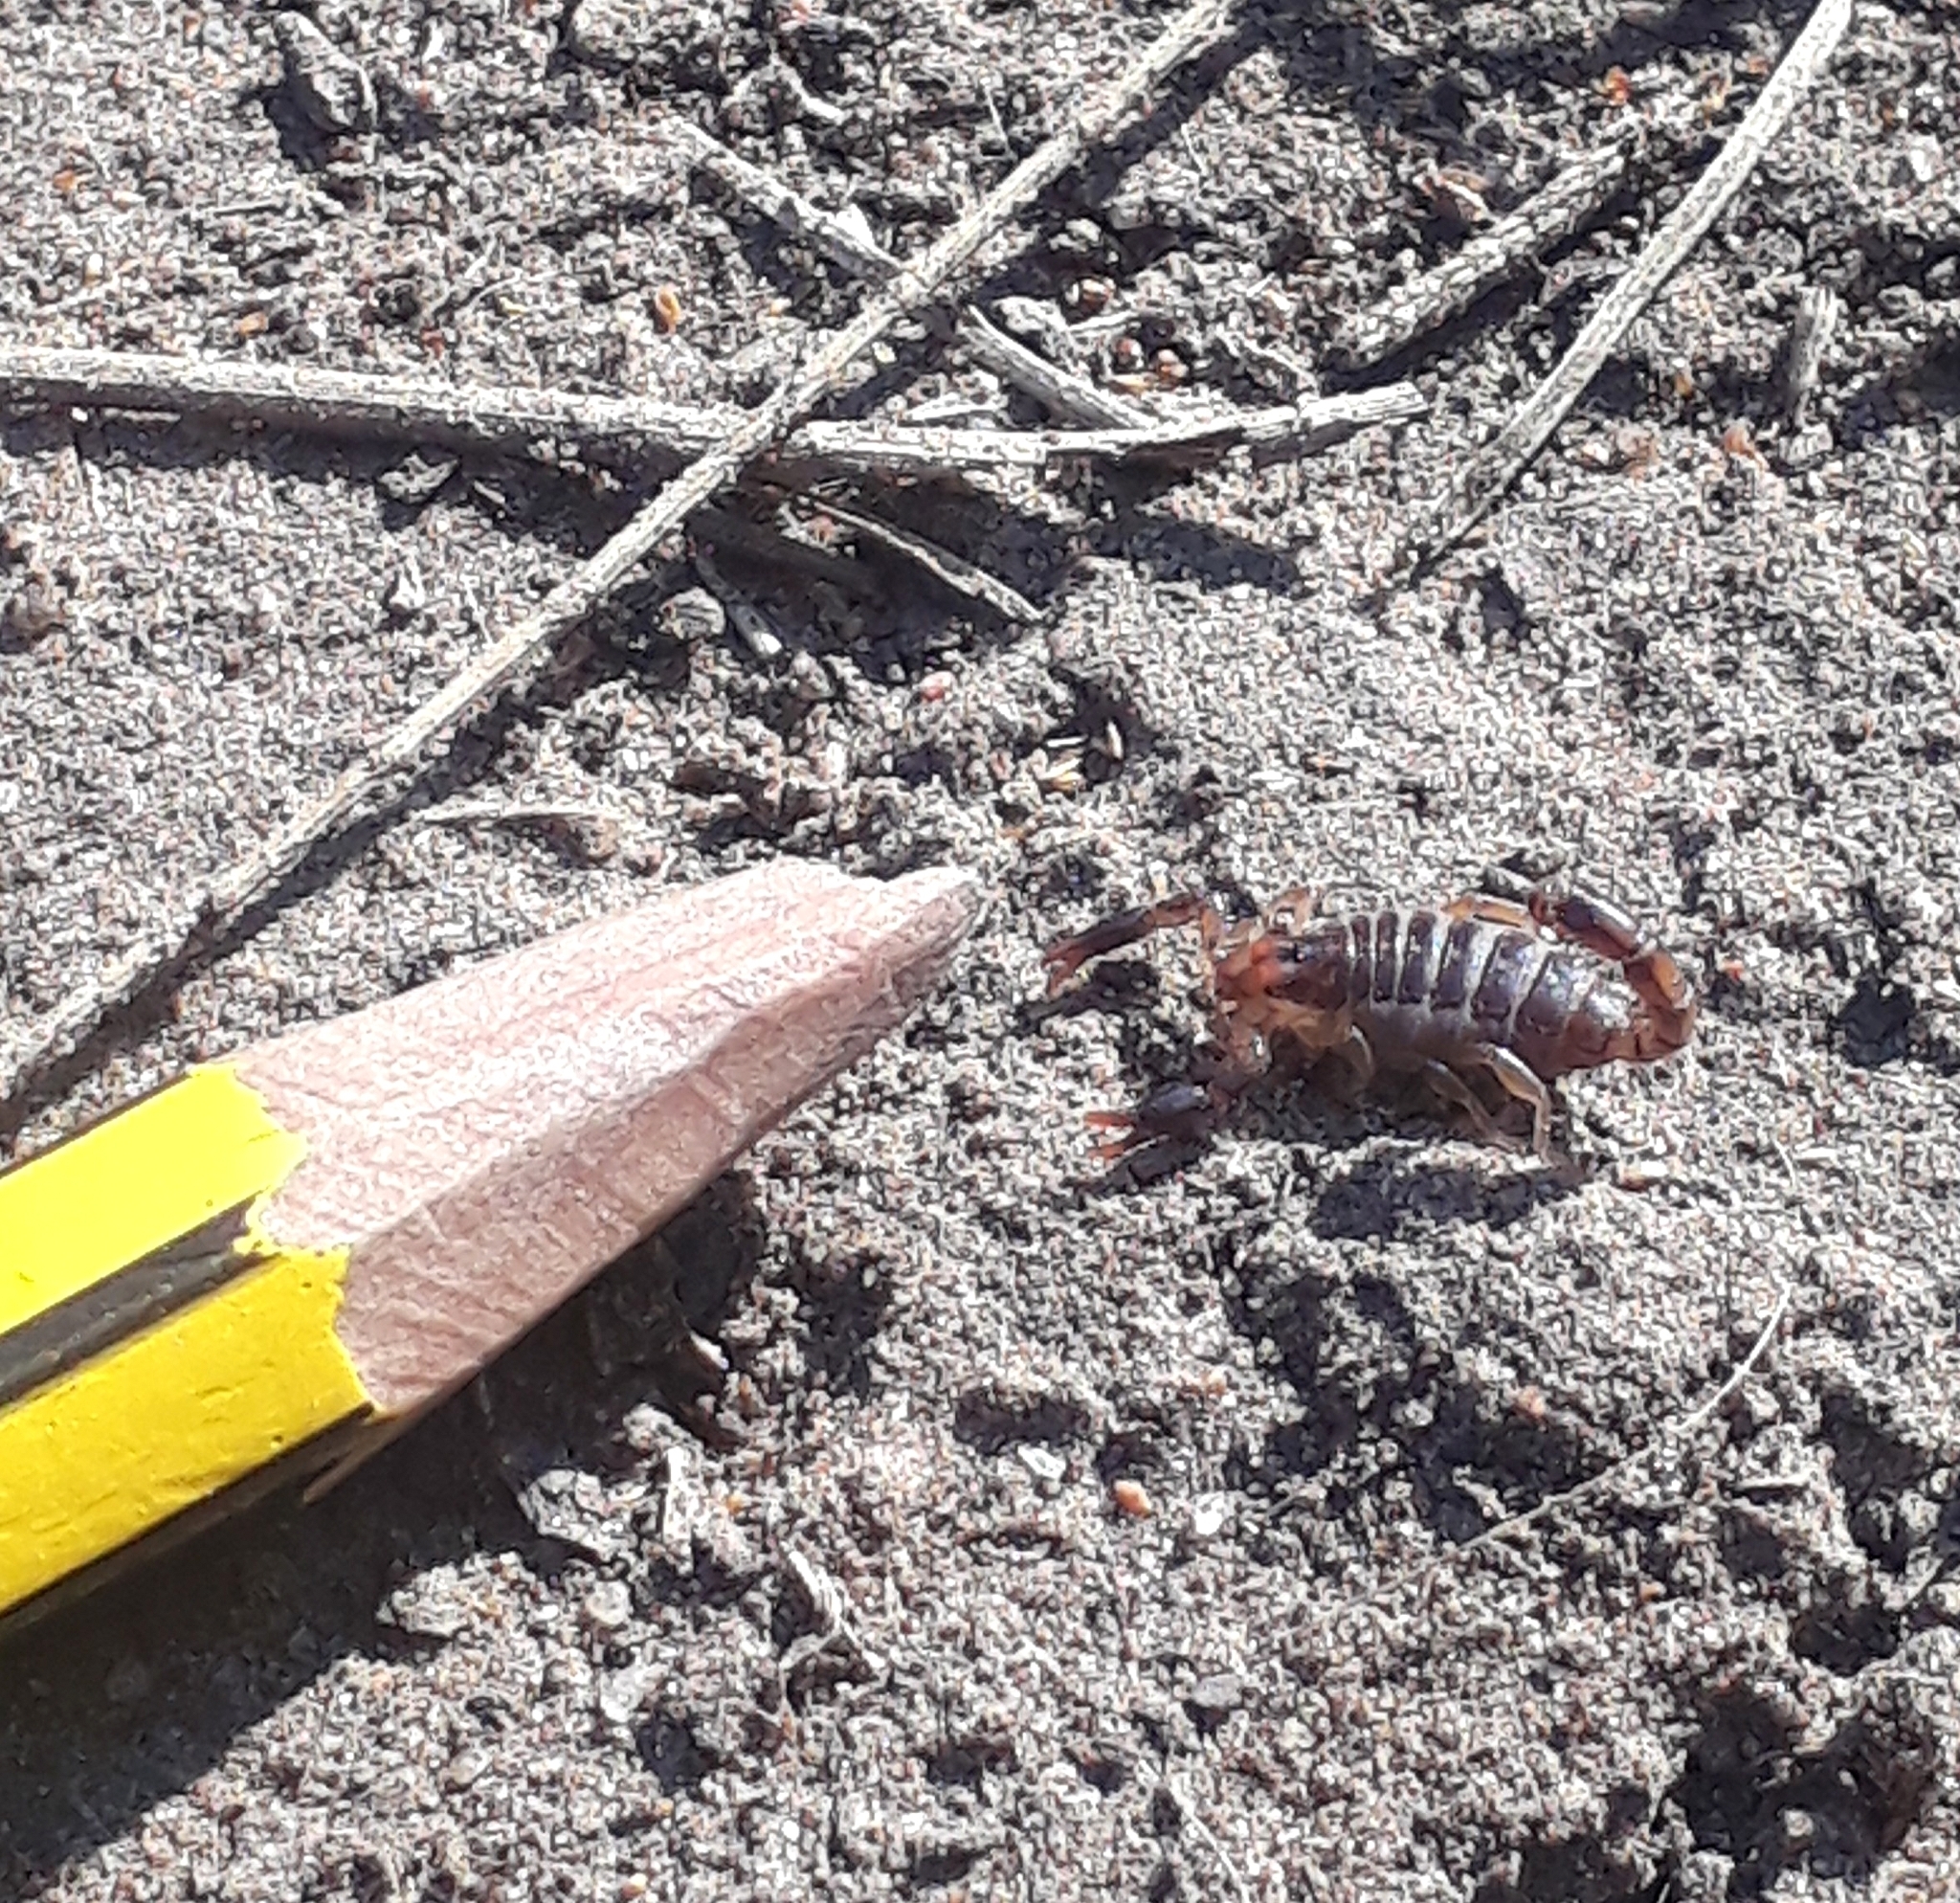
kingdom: Animalia
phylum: Arthropoda
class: Arachnida
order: Scorpiones
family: Bothriuridae
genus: Bothriurus
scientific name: Bothriurus bonariensis
